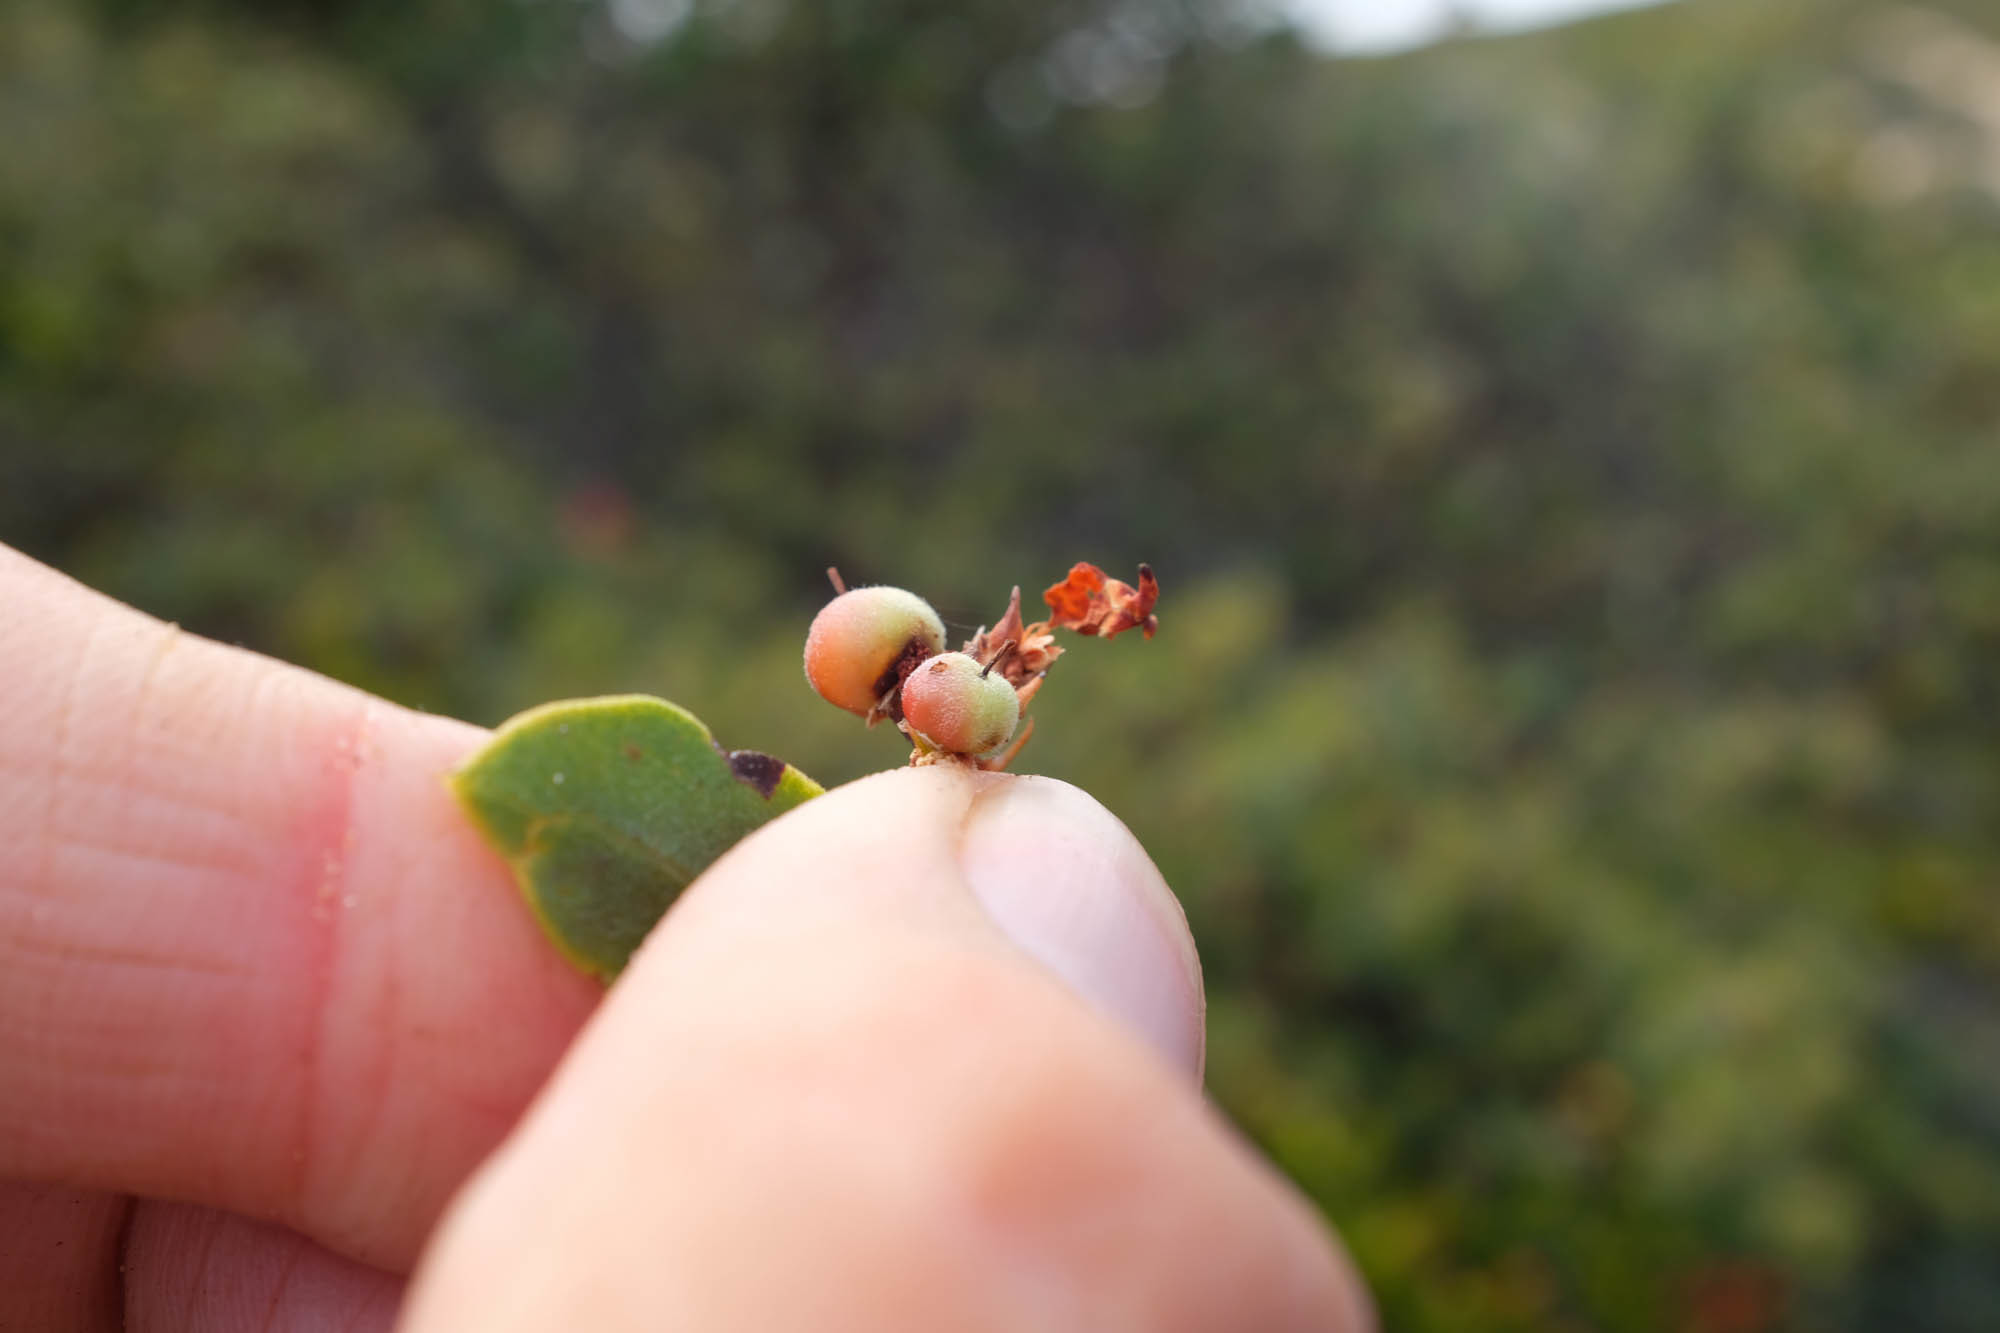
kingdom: Plantae
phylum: Tracheophyta
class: Magnoliopsida
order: Ericales
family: Ericaceae
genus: Arctostaphylos
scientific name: Arctostaphylos crustacea
